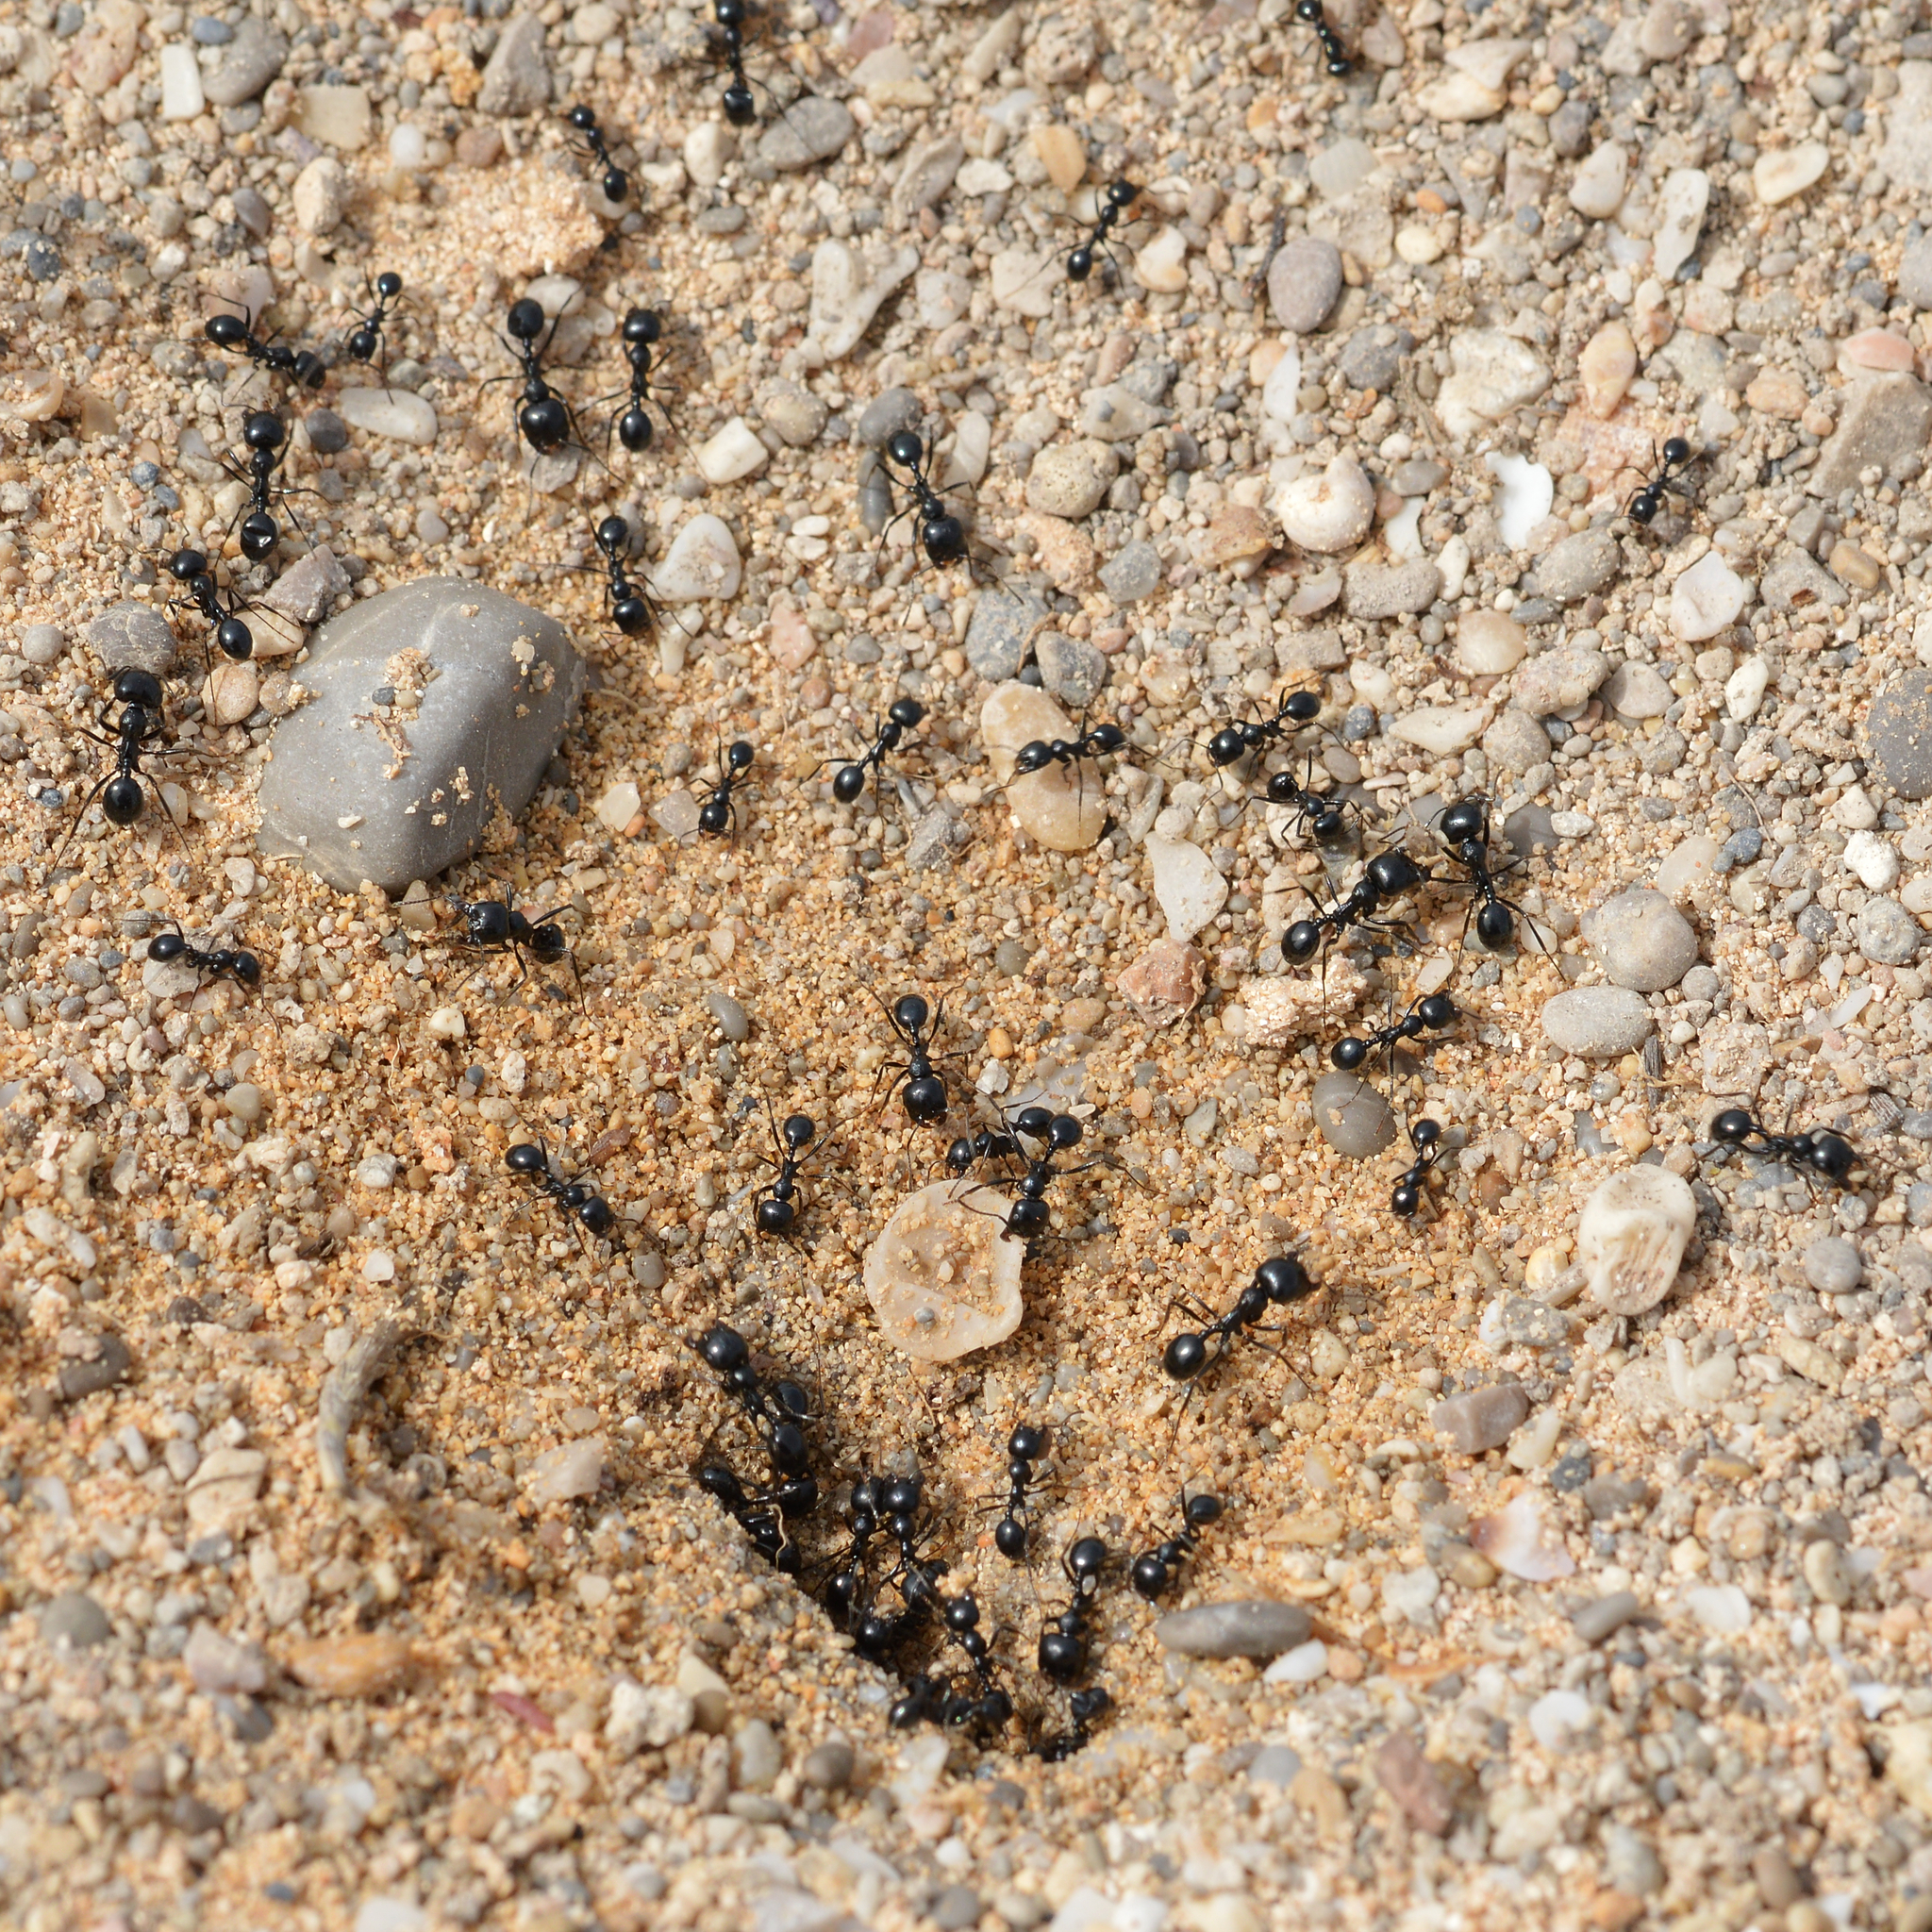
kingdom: Animalia
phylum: Arthropoda
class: Insecta
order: Hymenoptera
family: Formicidae
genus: Messor
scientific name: Messor bouvieri
